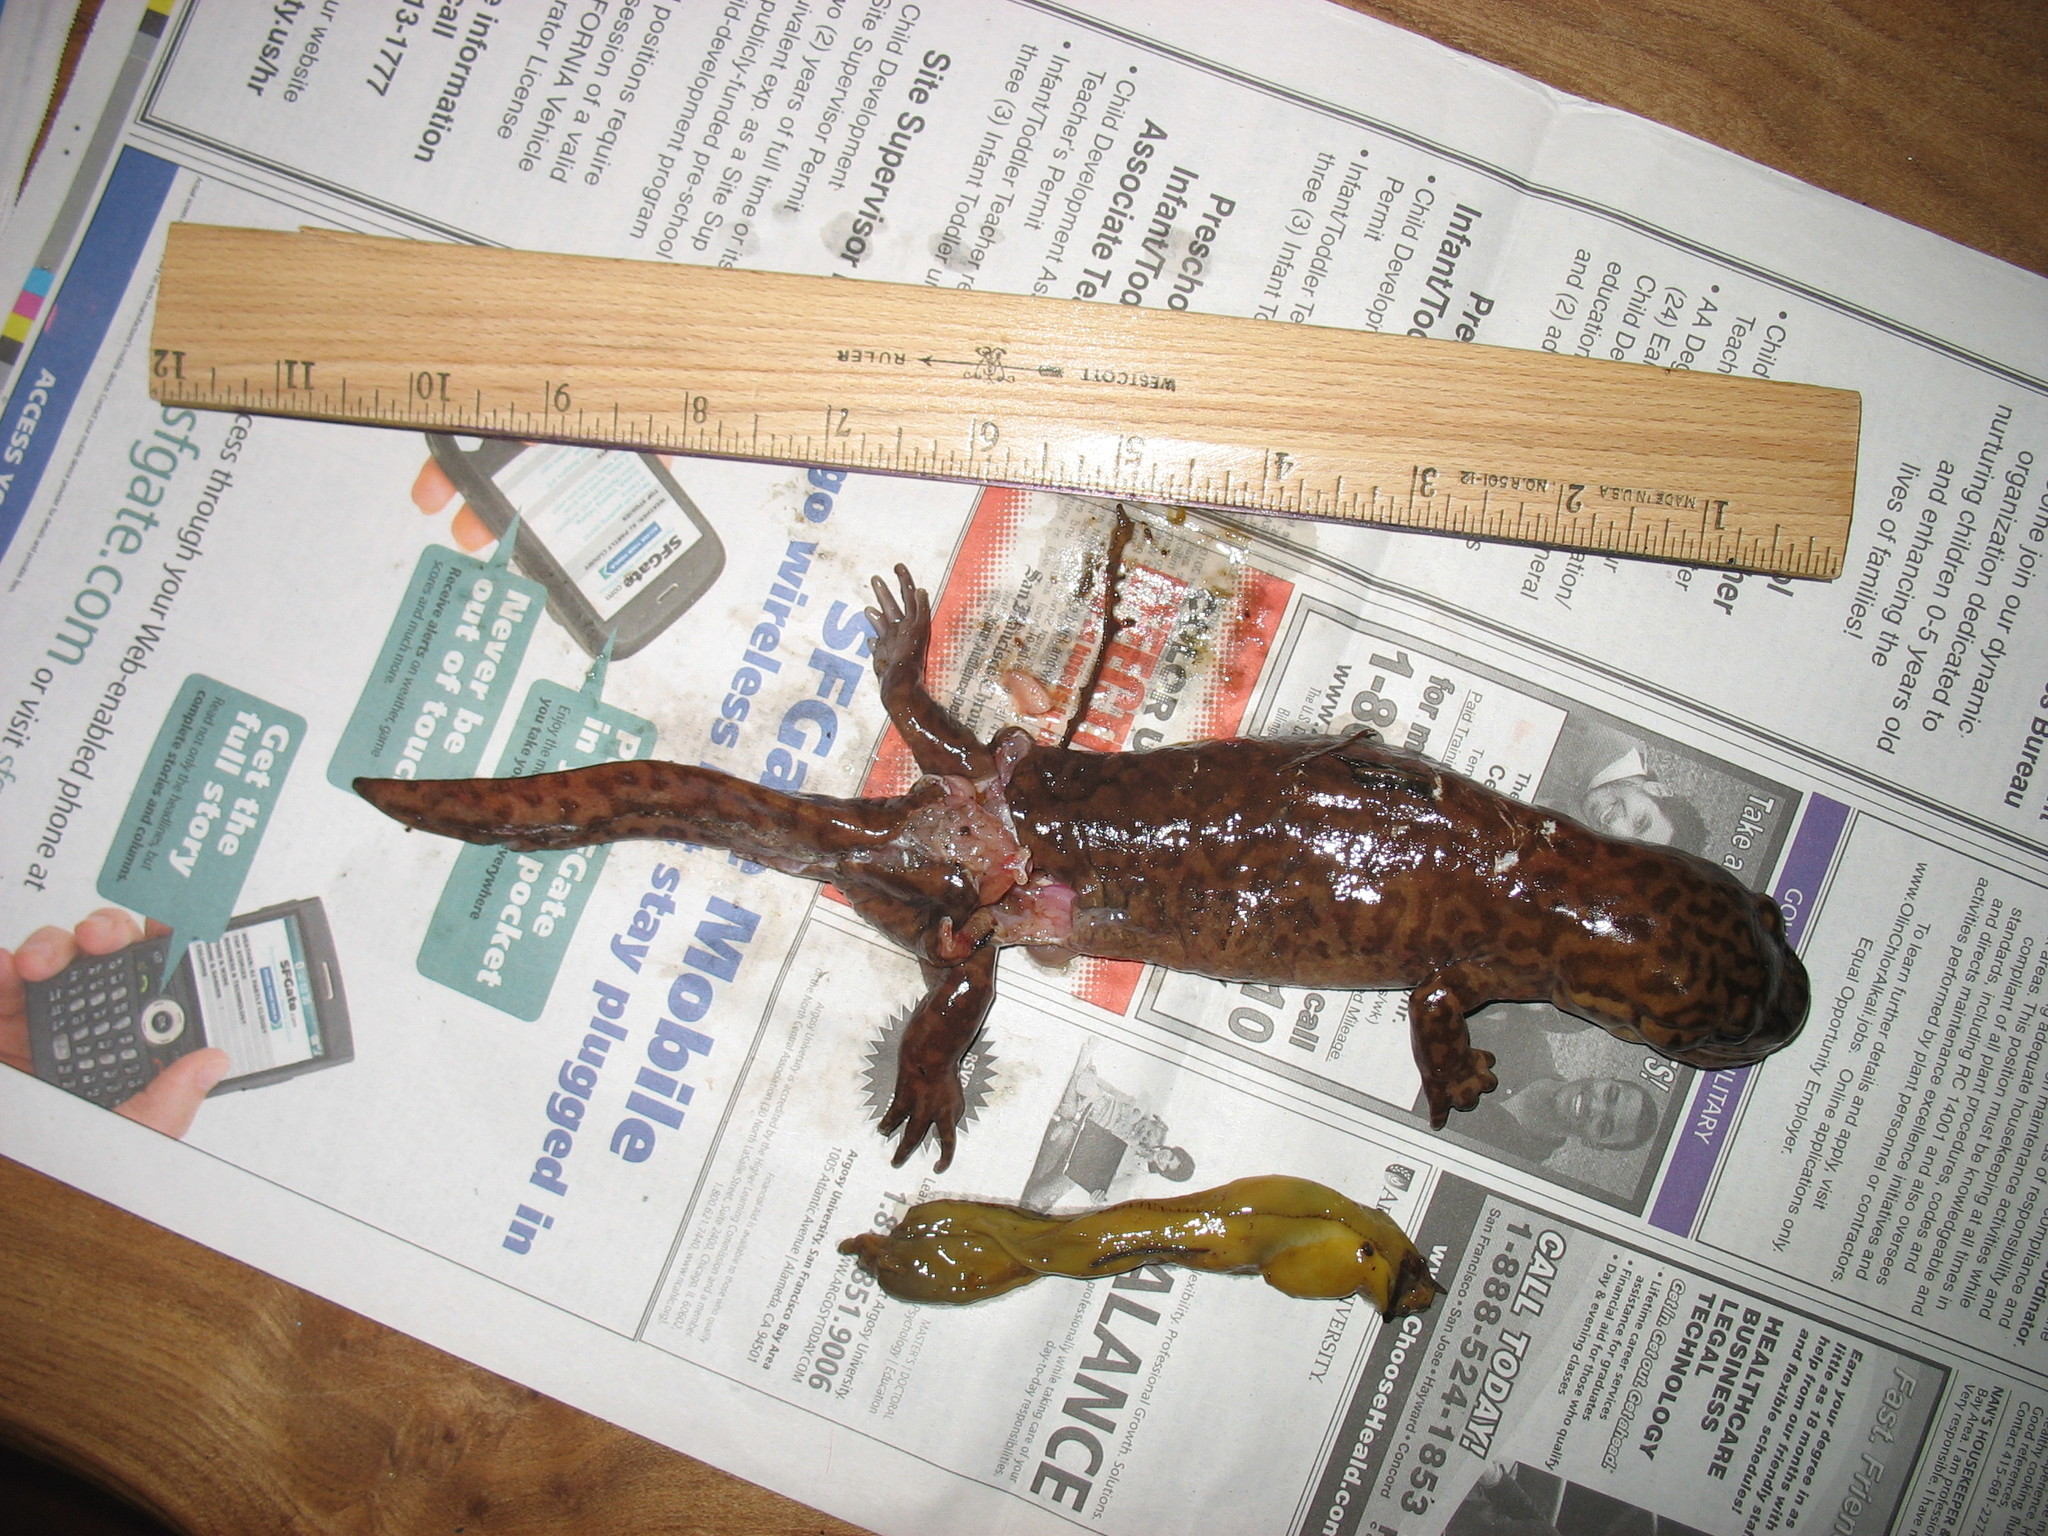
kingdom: Animalia
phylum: Chordata
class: Amphibia
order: Caudata
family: Ambystomatidae
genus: Dicamptodon
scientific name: Dicamptodon ensatus
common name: California giant salamander
